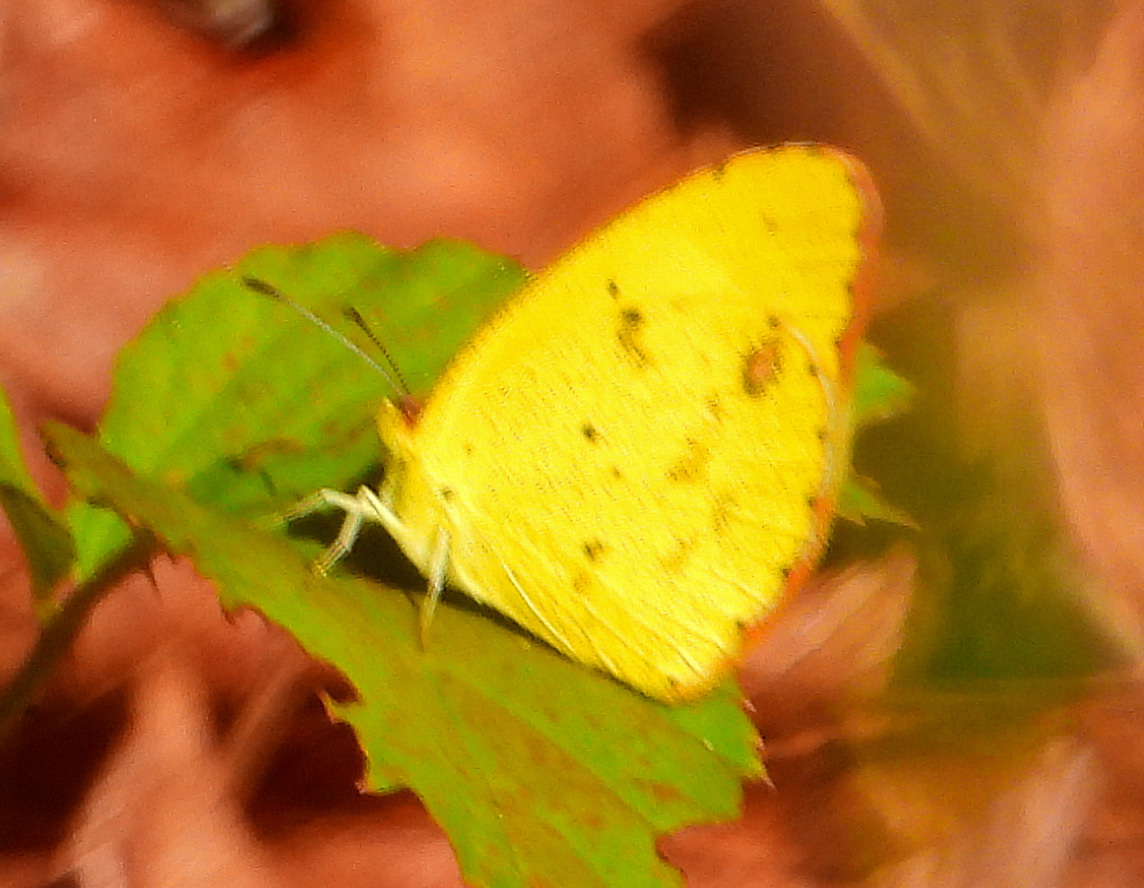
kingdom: Animalia
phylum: Arthropoda
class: Insecta
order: Lepidoptera
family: Pieridae
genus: Pyrisitia
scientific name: Pyrisitia lisa
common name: Little yellow
